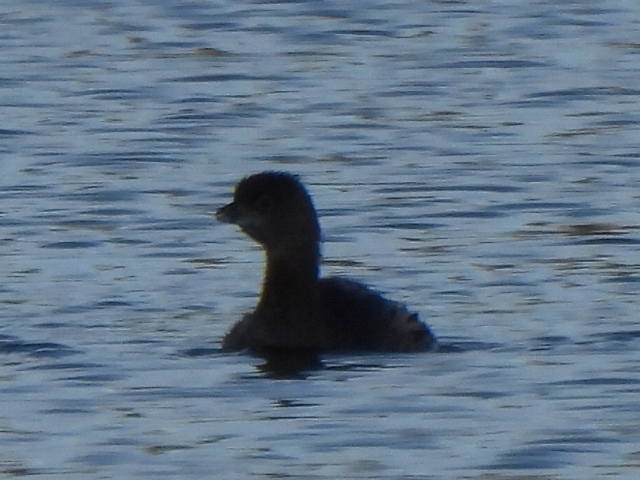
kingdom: Animalia
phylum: Chordata
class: Aves
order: Podicipediformes
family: Podicipedidae
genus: Podilymbus
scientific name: Podilymbus podiceps
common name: Pied-billed grebe
